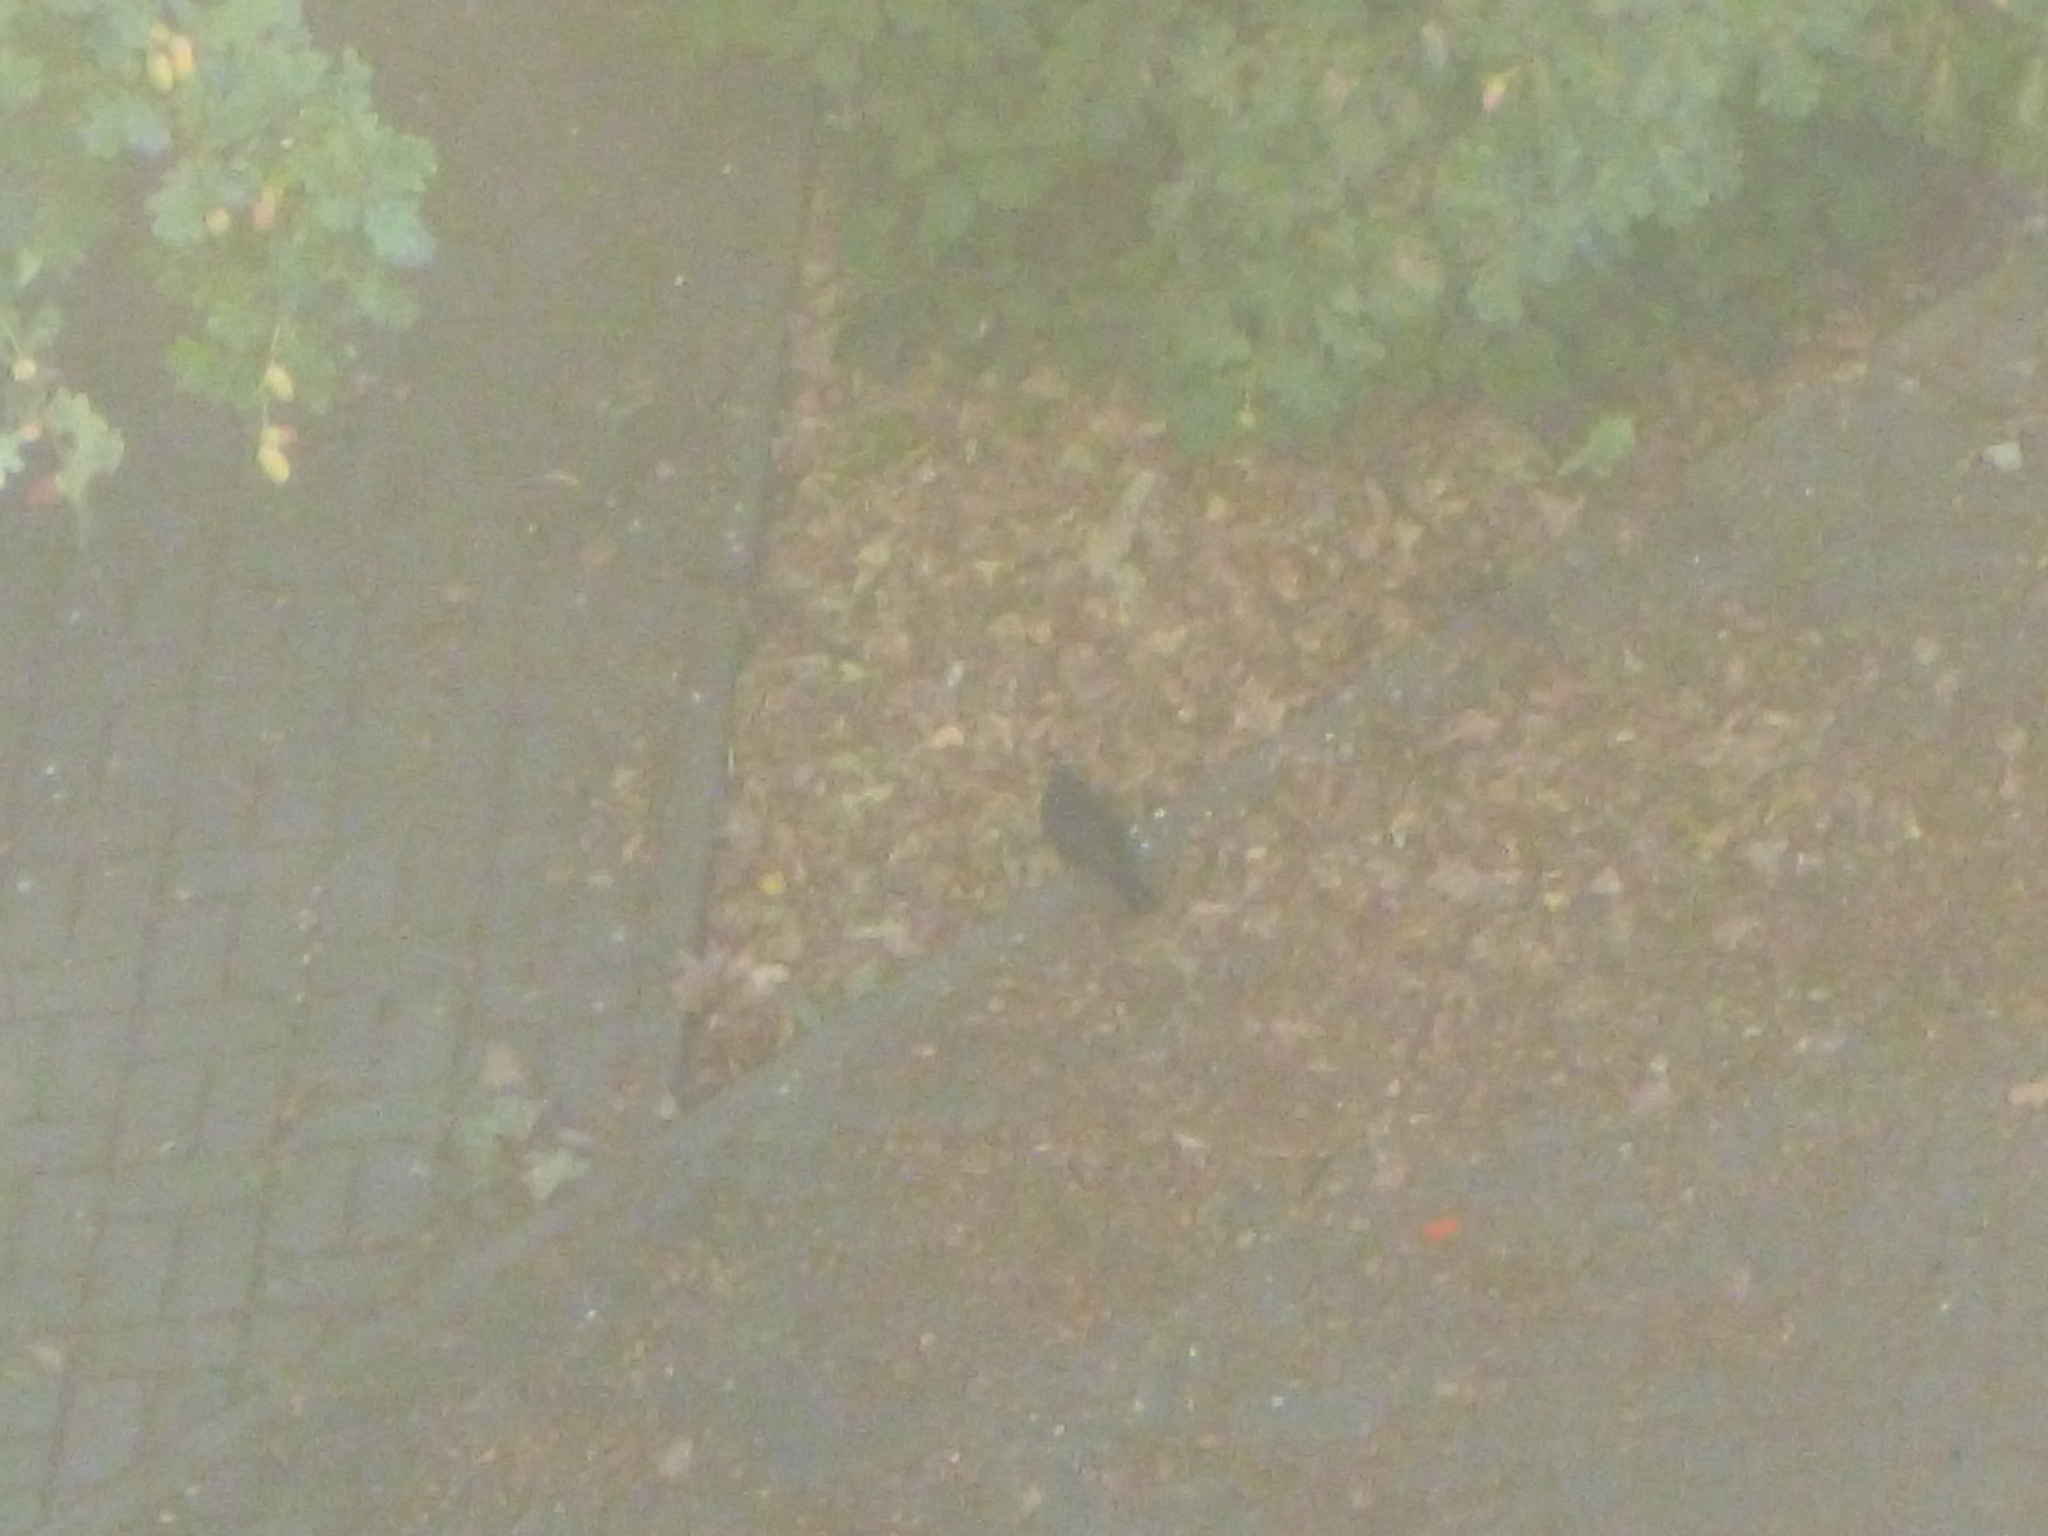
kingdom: Animalia
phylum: Chordata
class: Aves
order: Passeriformes
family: Turdidae
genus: Turdus
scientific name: Turdus merula
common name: Common blackbird
